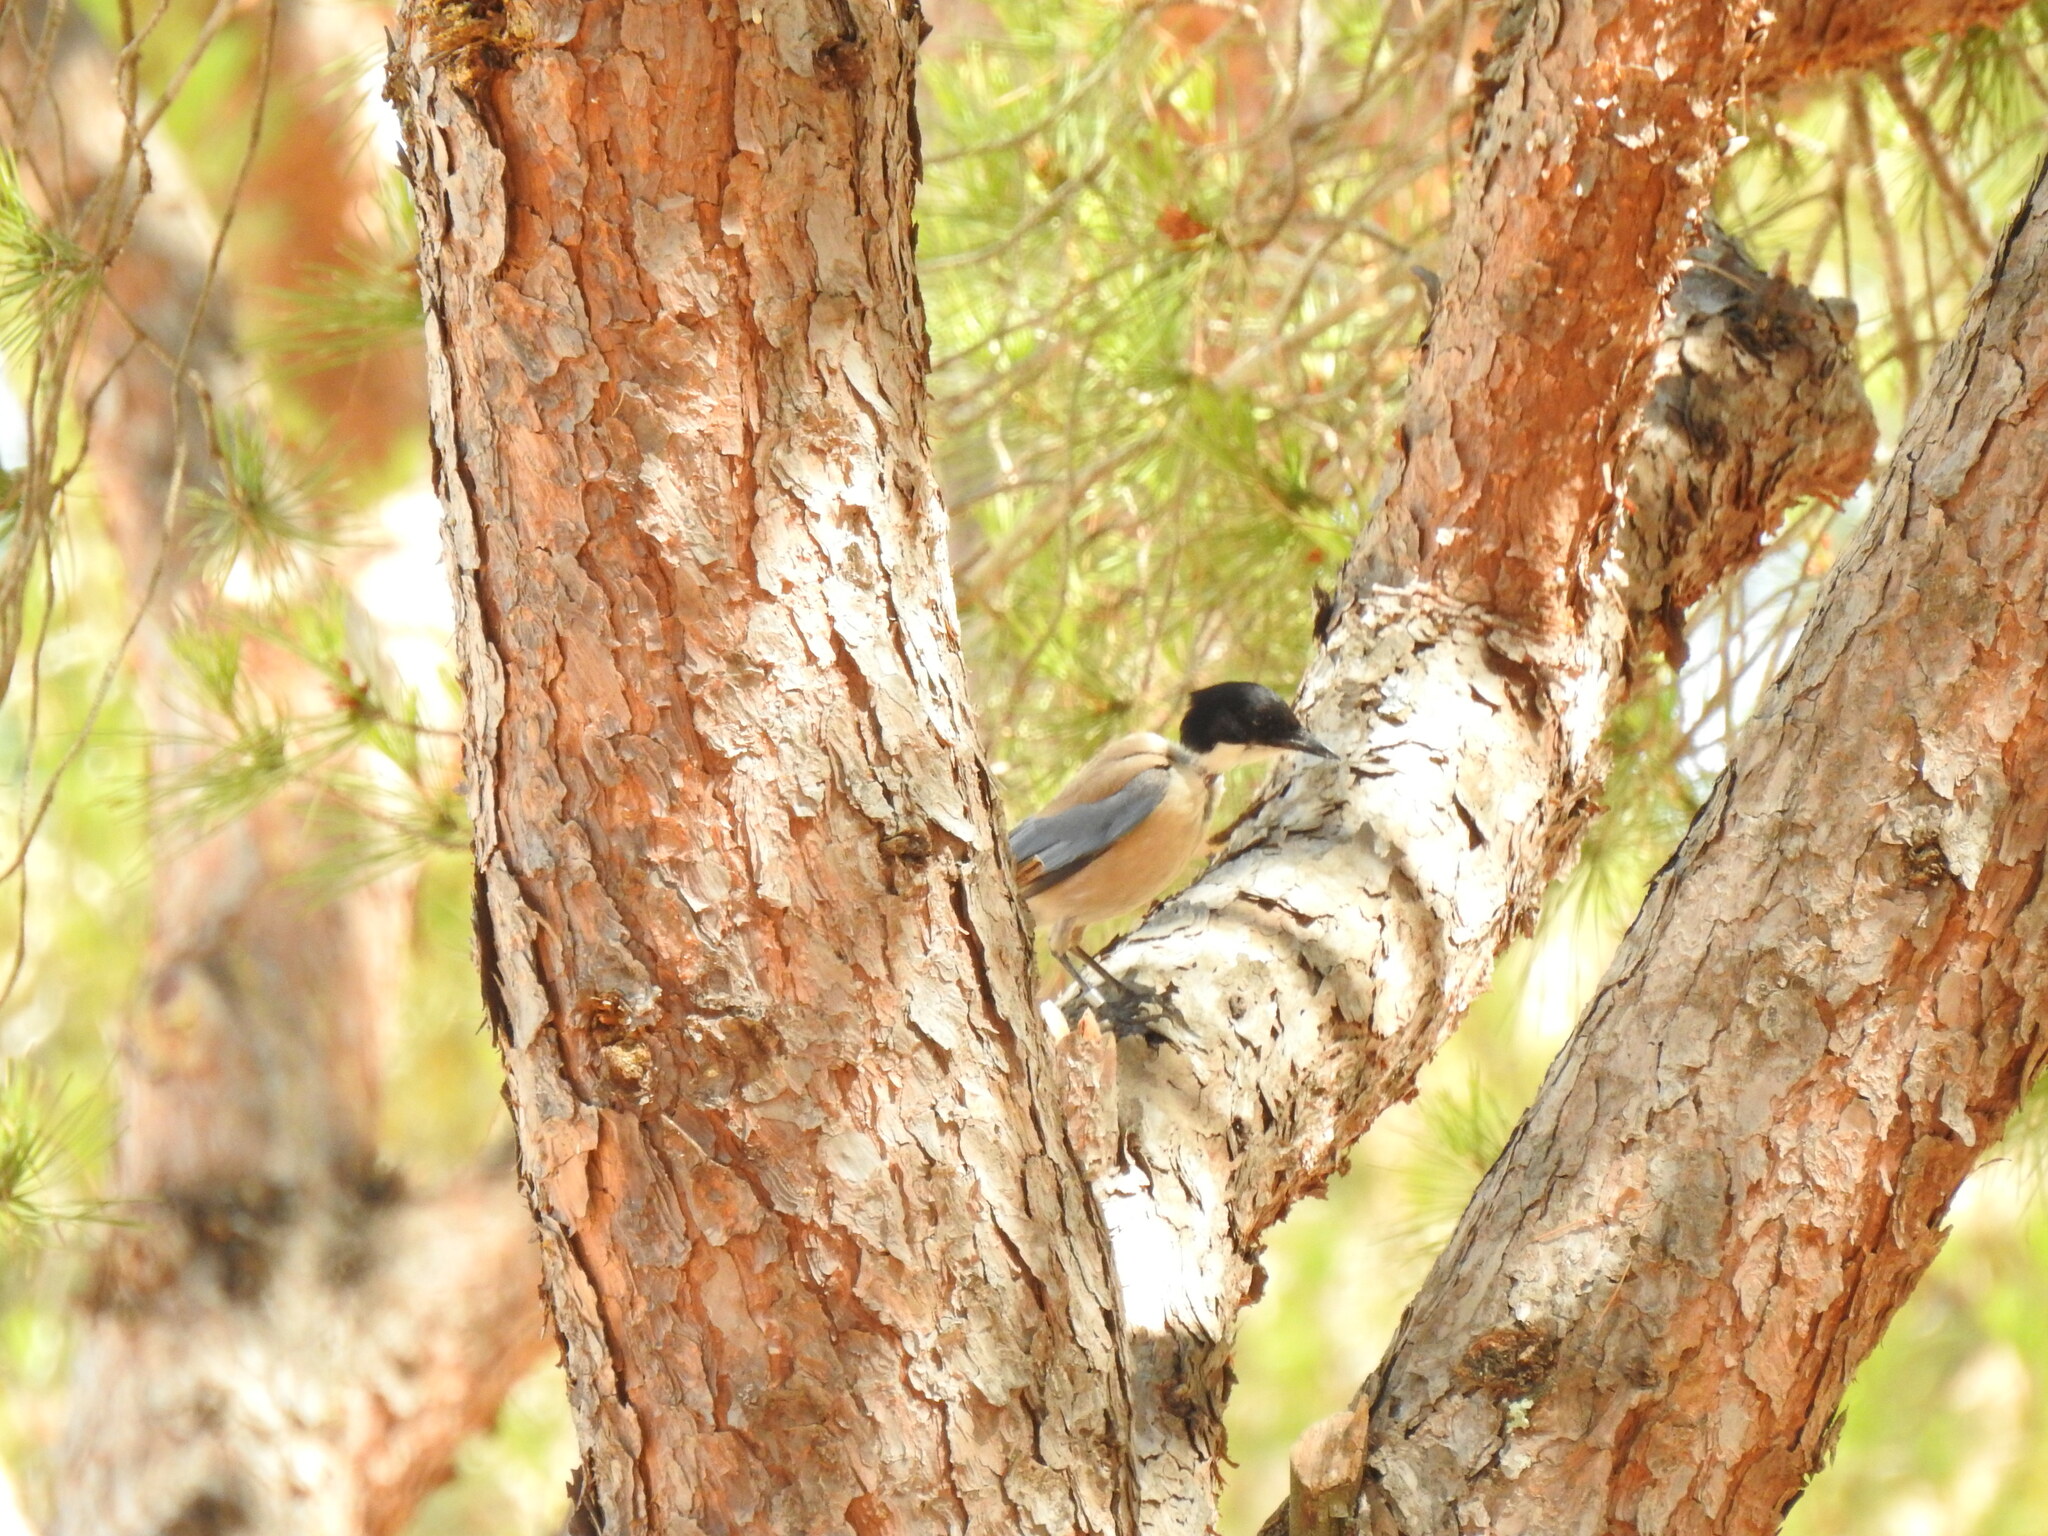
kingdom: Animalia
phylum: Chordata
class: Aves
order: Passeriformes
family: Corvidae
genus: Cyanopica
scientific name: Cyanopica cooki
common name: Iberian magpie
